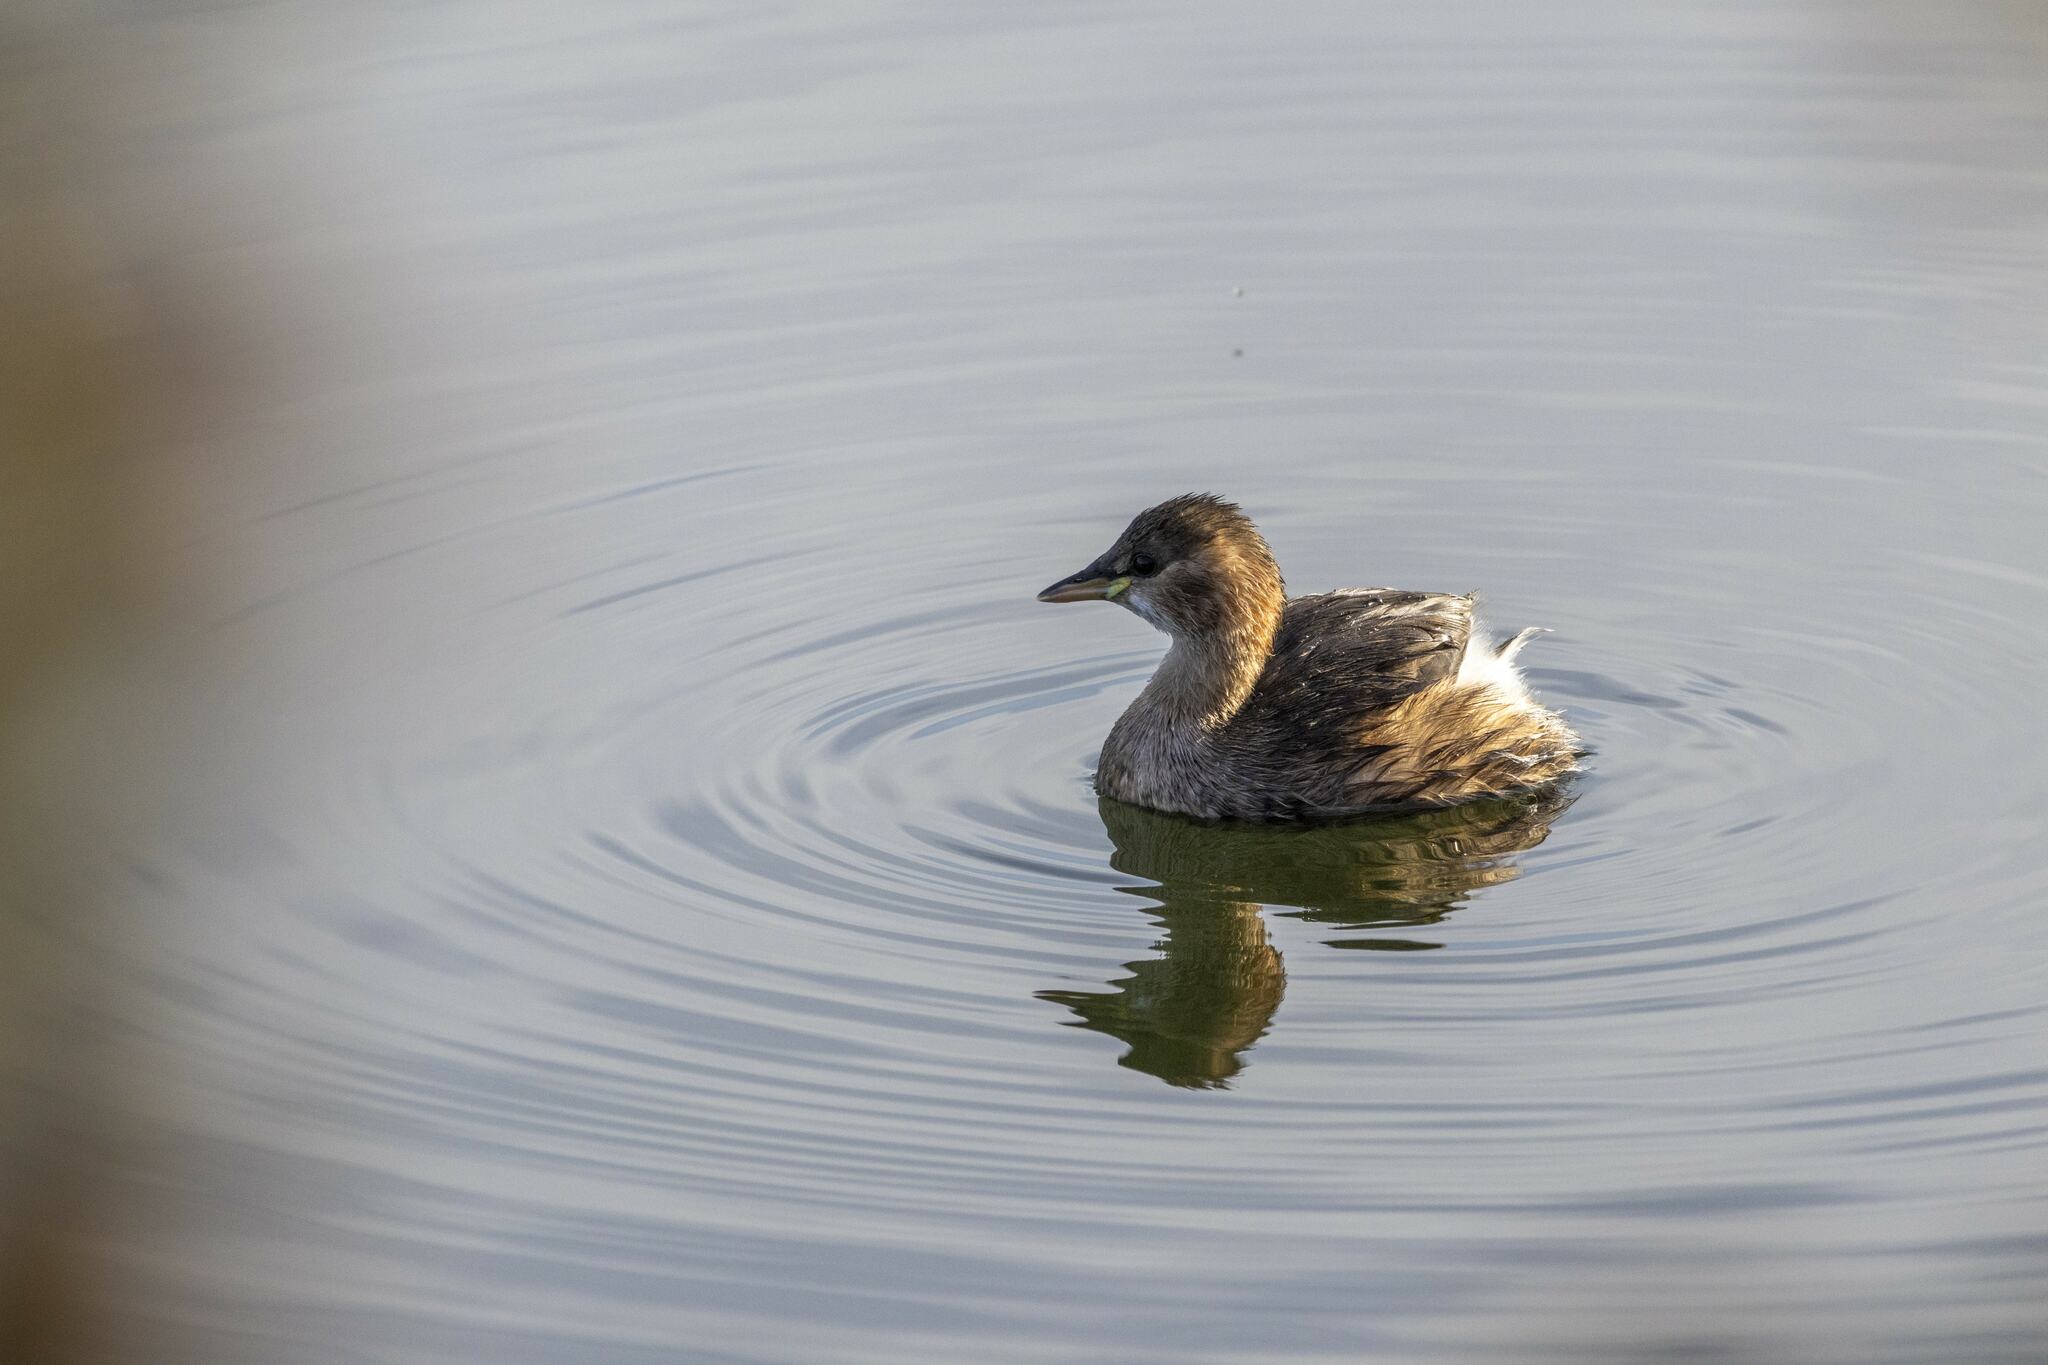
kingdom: Animalia
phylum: Chordata
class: Aves
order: Podicipediformes
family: Podicipedidae
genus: Tachybaptus
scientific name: Tachybaptus ruficollis
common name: Little grebe
